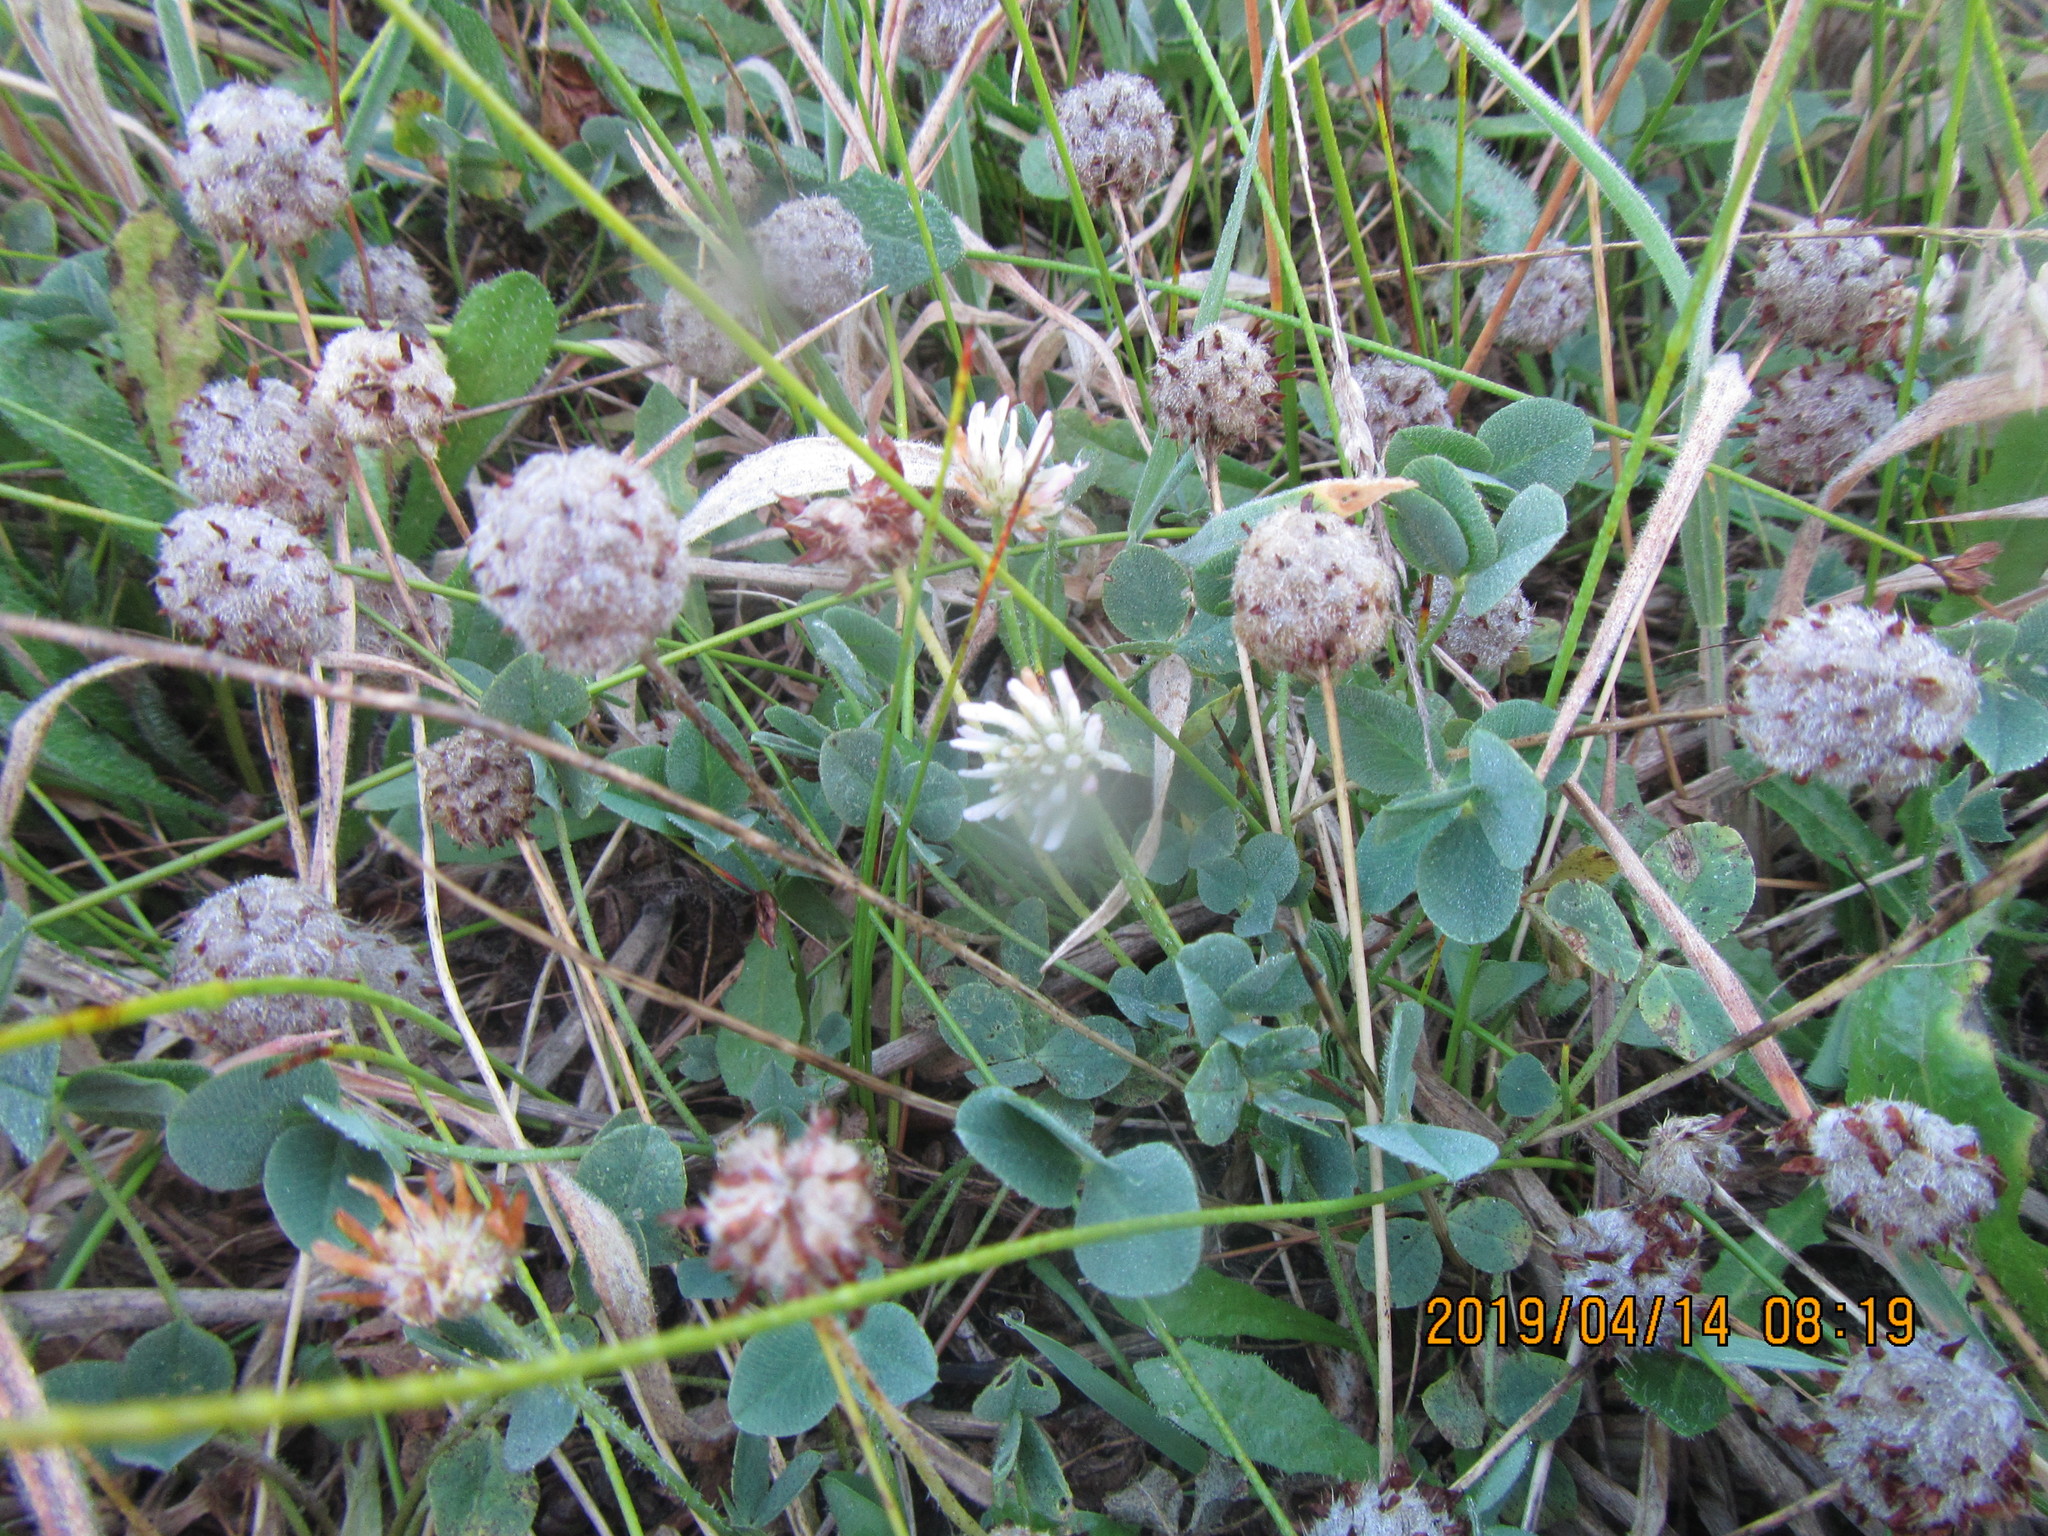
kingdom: Plantae
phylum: Tracheophyta
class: Magnoliopsida
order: Fabales
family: Fabaceae
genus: Trifolium
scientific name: Trifolium fragiferum
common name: Strawberry clover
